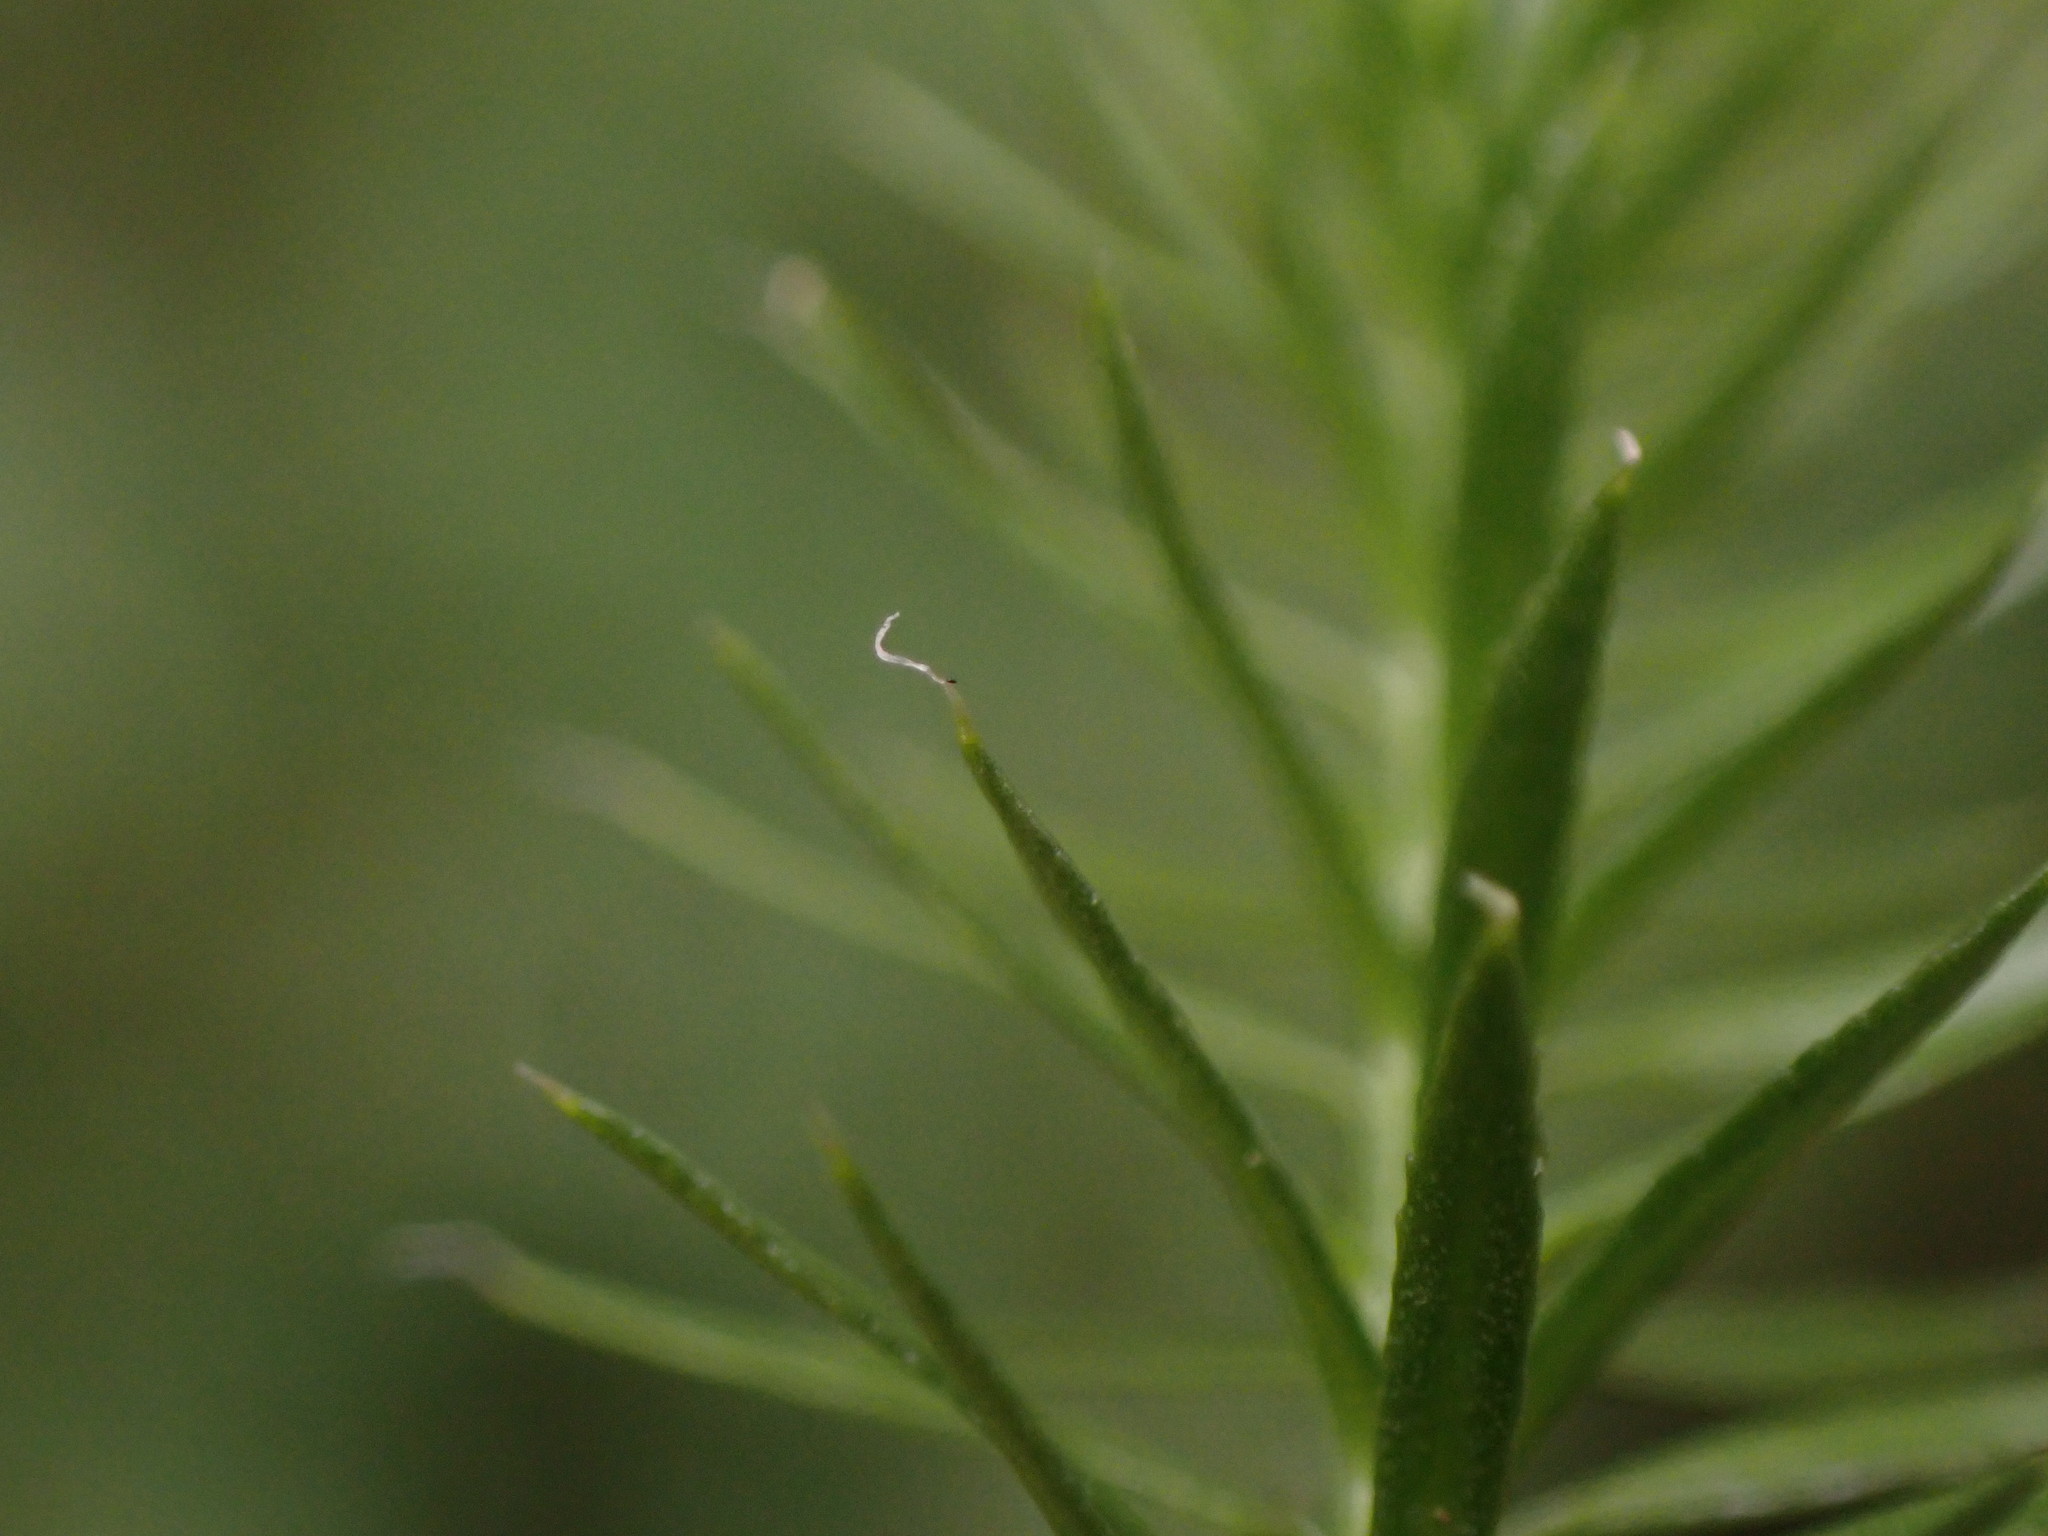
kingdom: Plantae
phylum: Tracheophyta
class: Lycopodiopsida
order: Lycopodiales
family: Lycopodiaceae
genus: Spinulum
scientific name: Spinulum annotinum
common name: Interrupted club-moss
